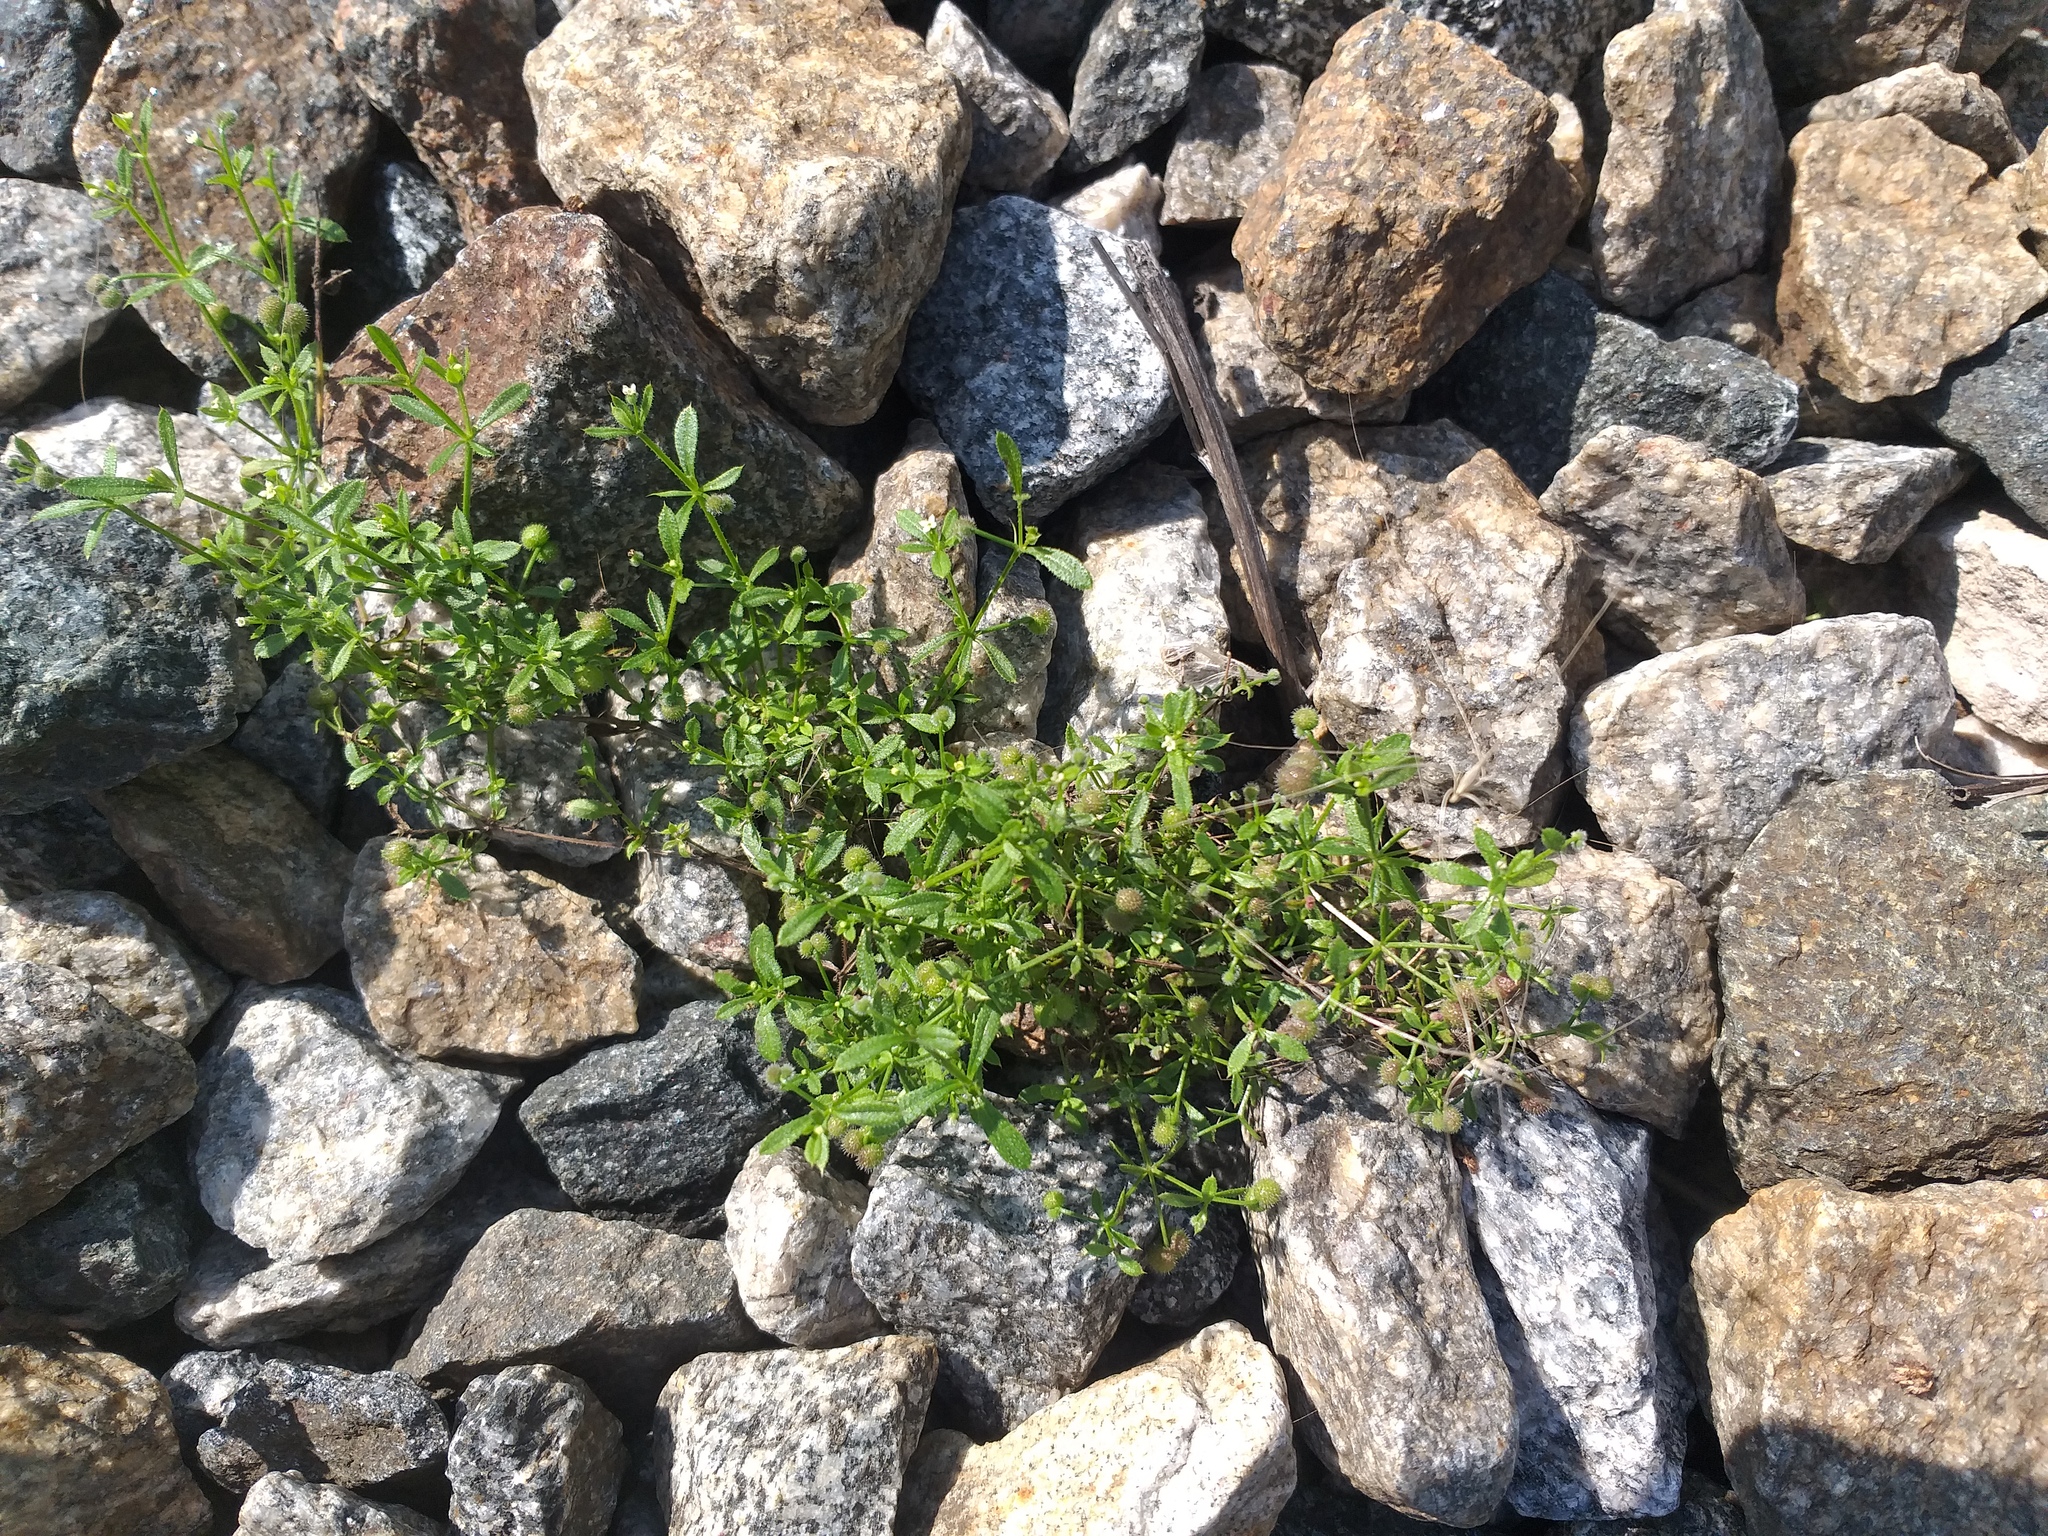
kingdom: Plantae
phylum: Tracheophyta
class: Magnoliopsida
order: Gentianales
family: Rubiaceae
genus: Galium
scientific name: Galium aparine
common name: Cleavers
